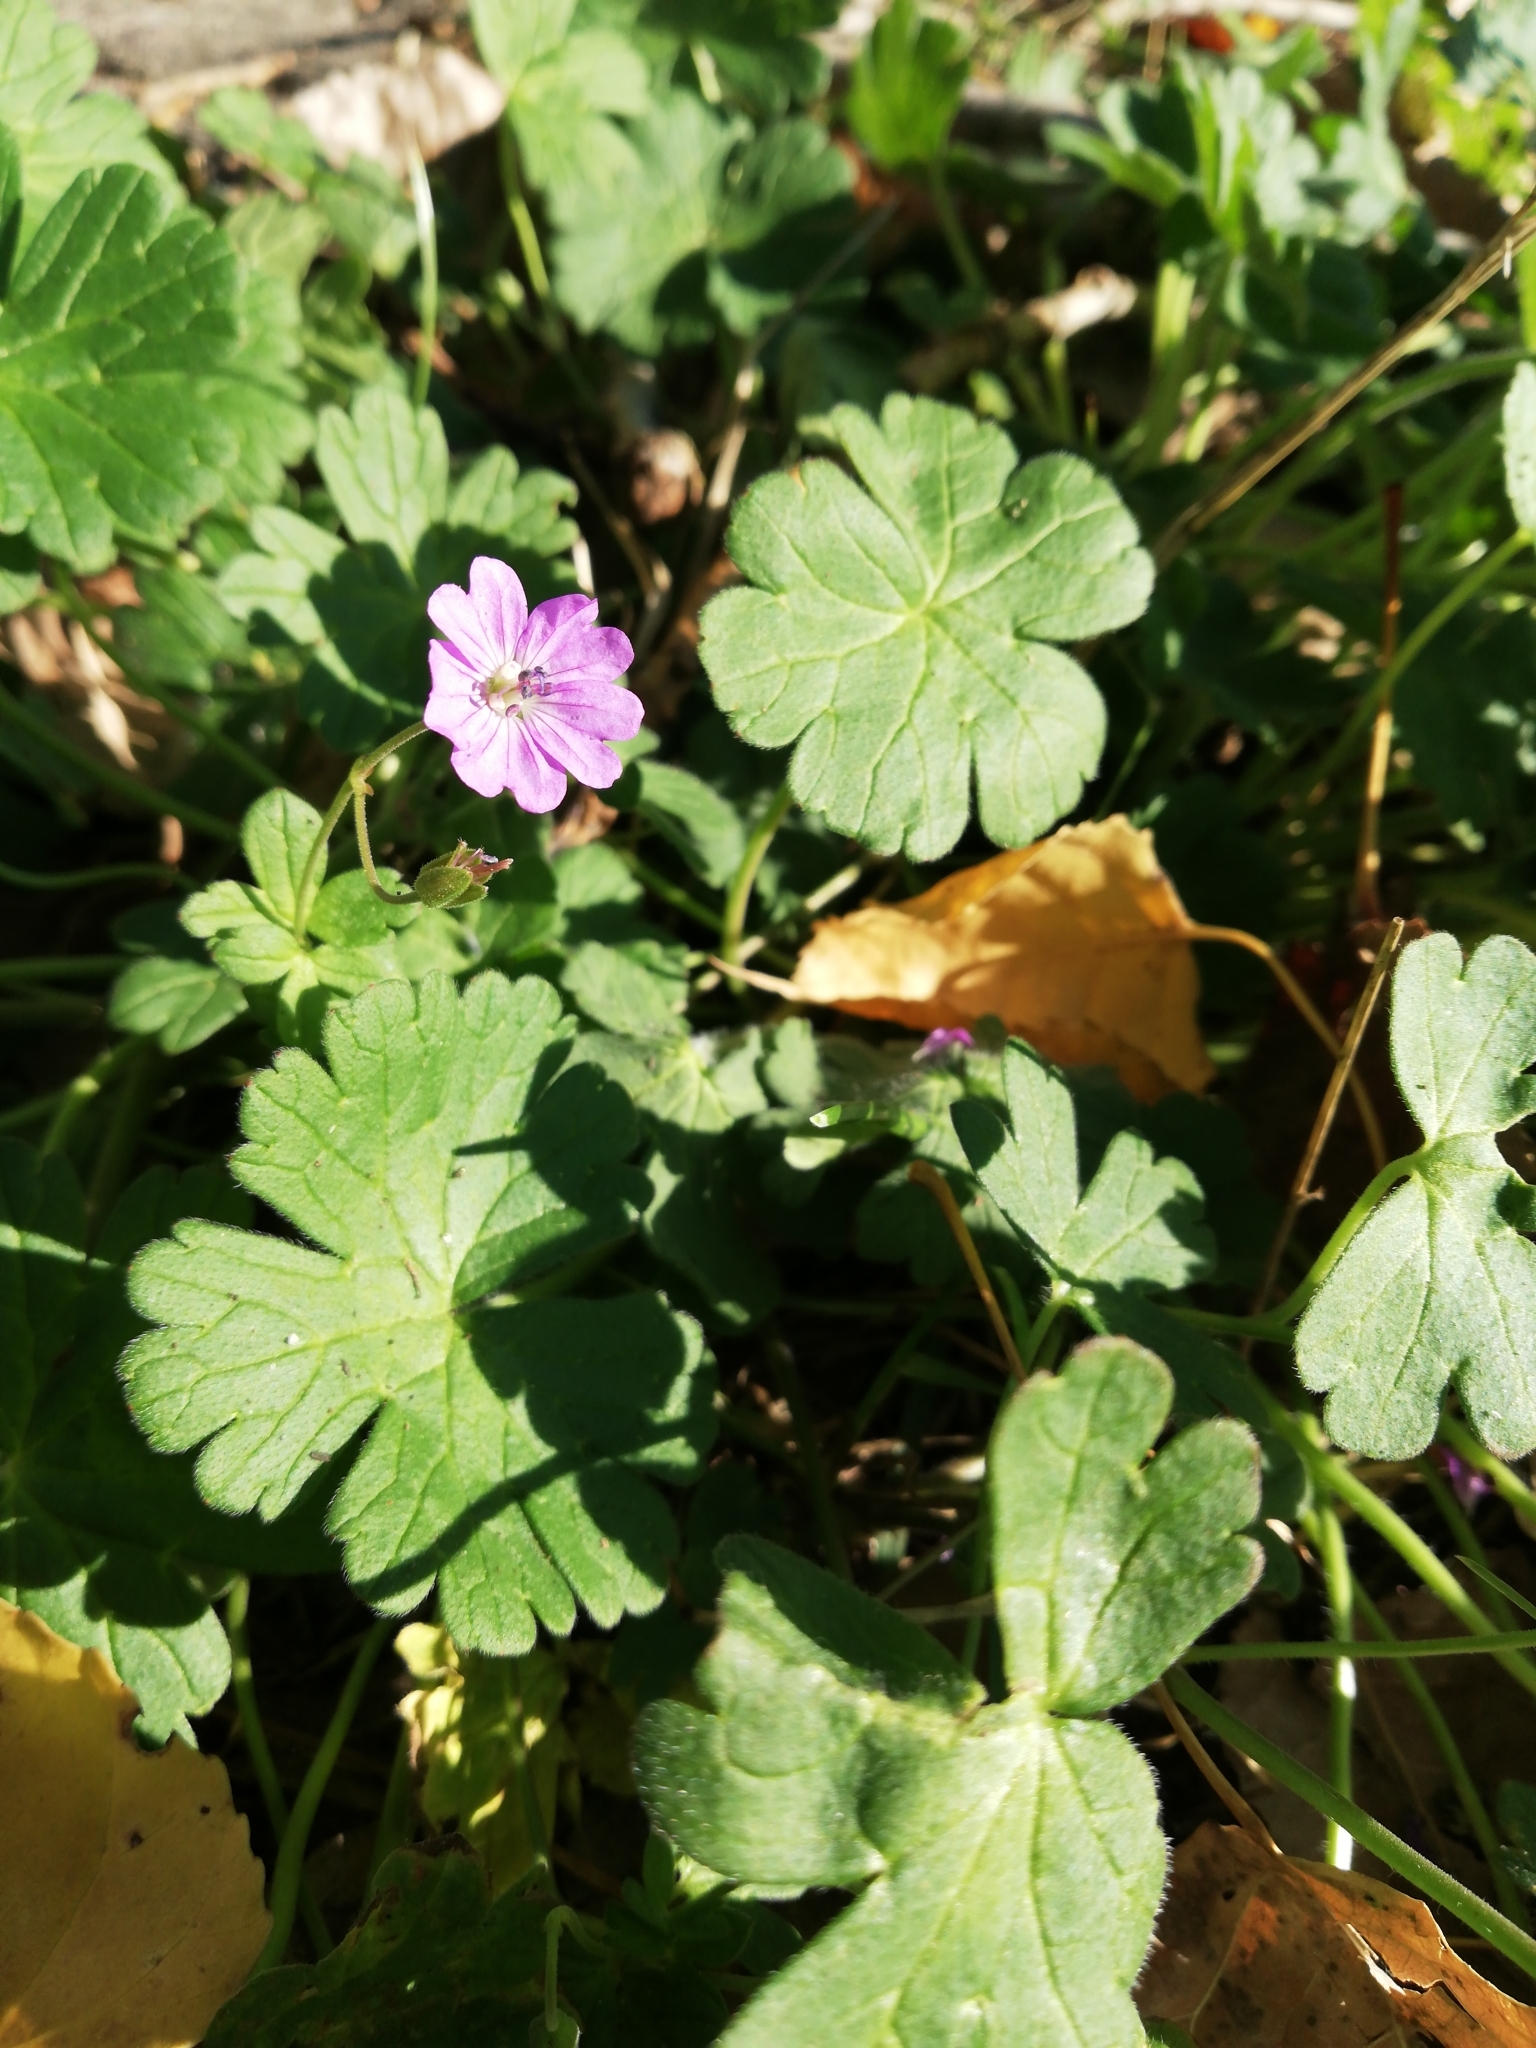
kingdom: Plantae
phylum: Tracheophyta
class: Magnoliopsida
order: Geraniales
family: Geraniaceae
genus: Geranium
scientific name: Geranium molle
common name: Dove's-foot crane's-bill
